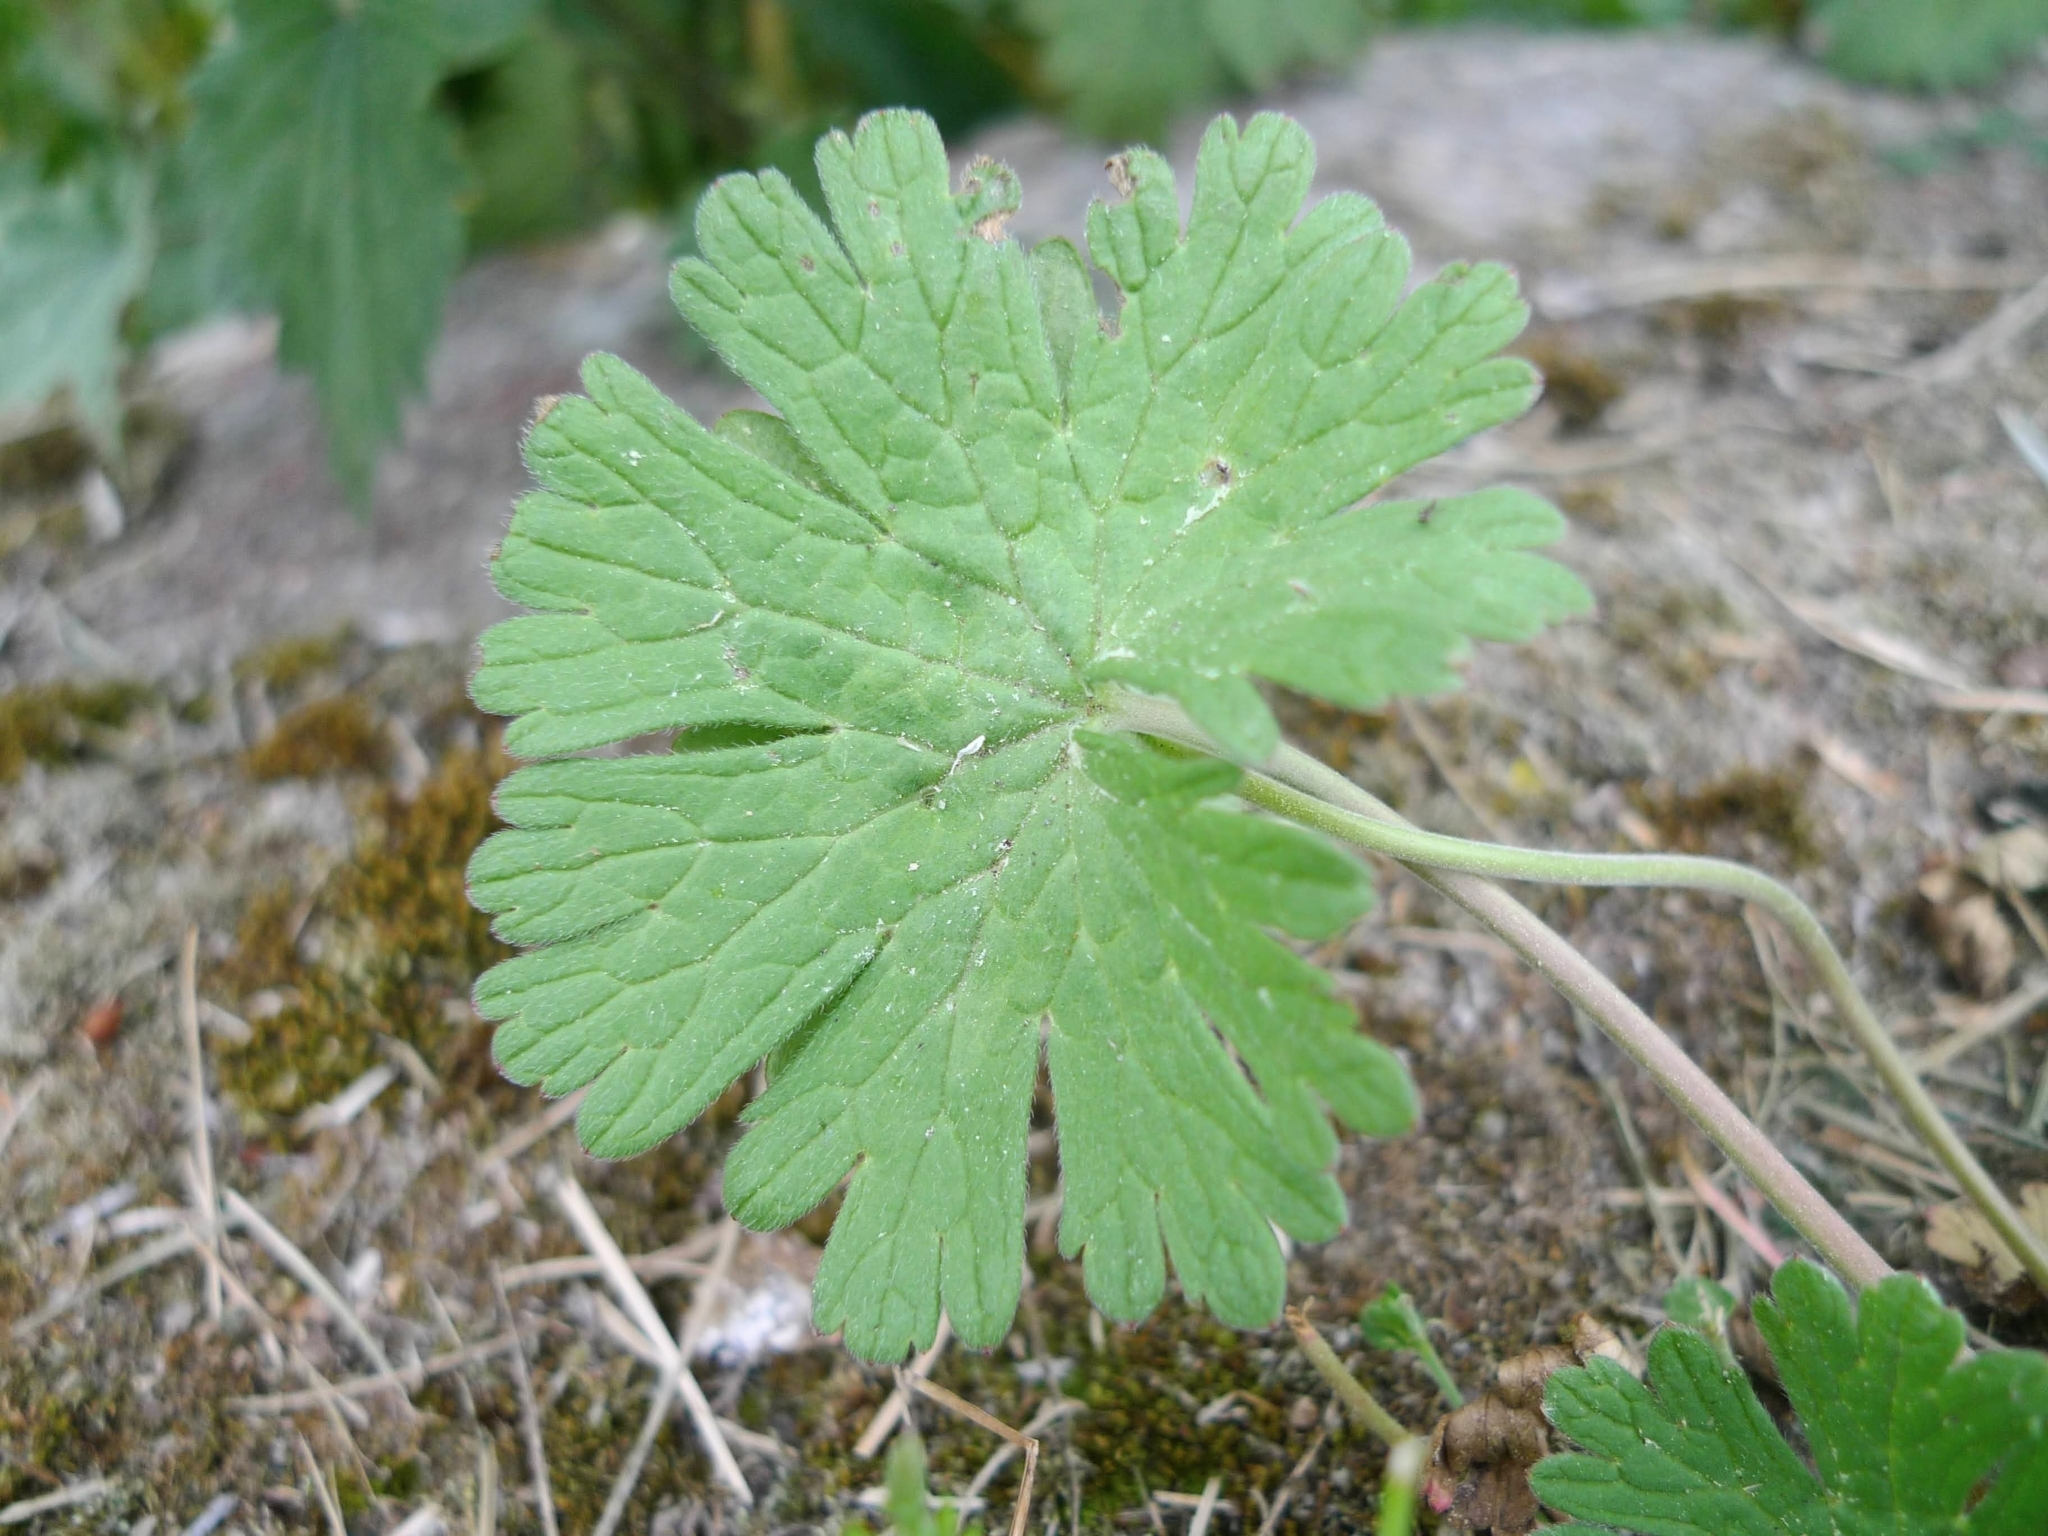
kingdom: Plantae
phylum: Tracheophyta
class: Magnoliopsida
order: Geraniales
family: Geraniaceae
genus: Geranium
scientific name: Geranium pusillum
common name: Small geranium
